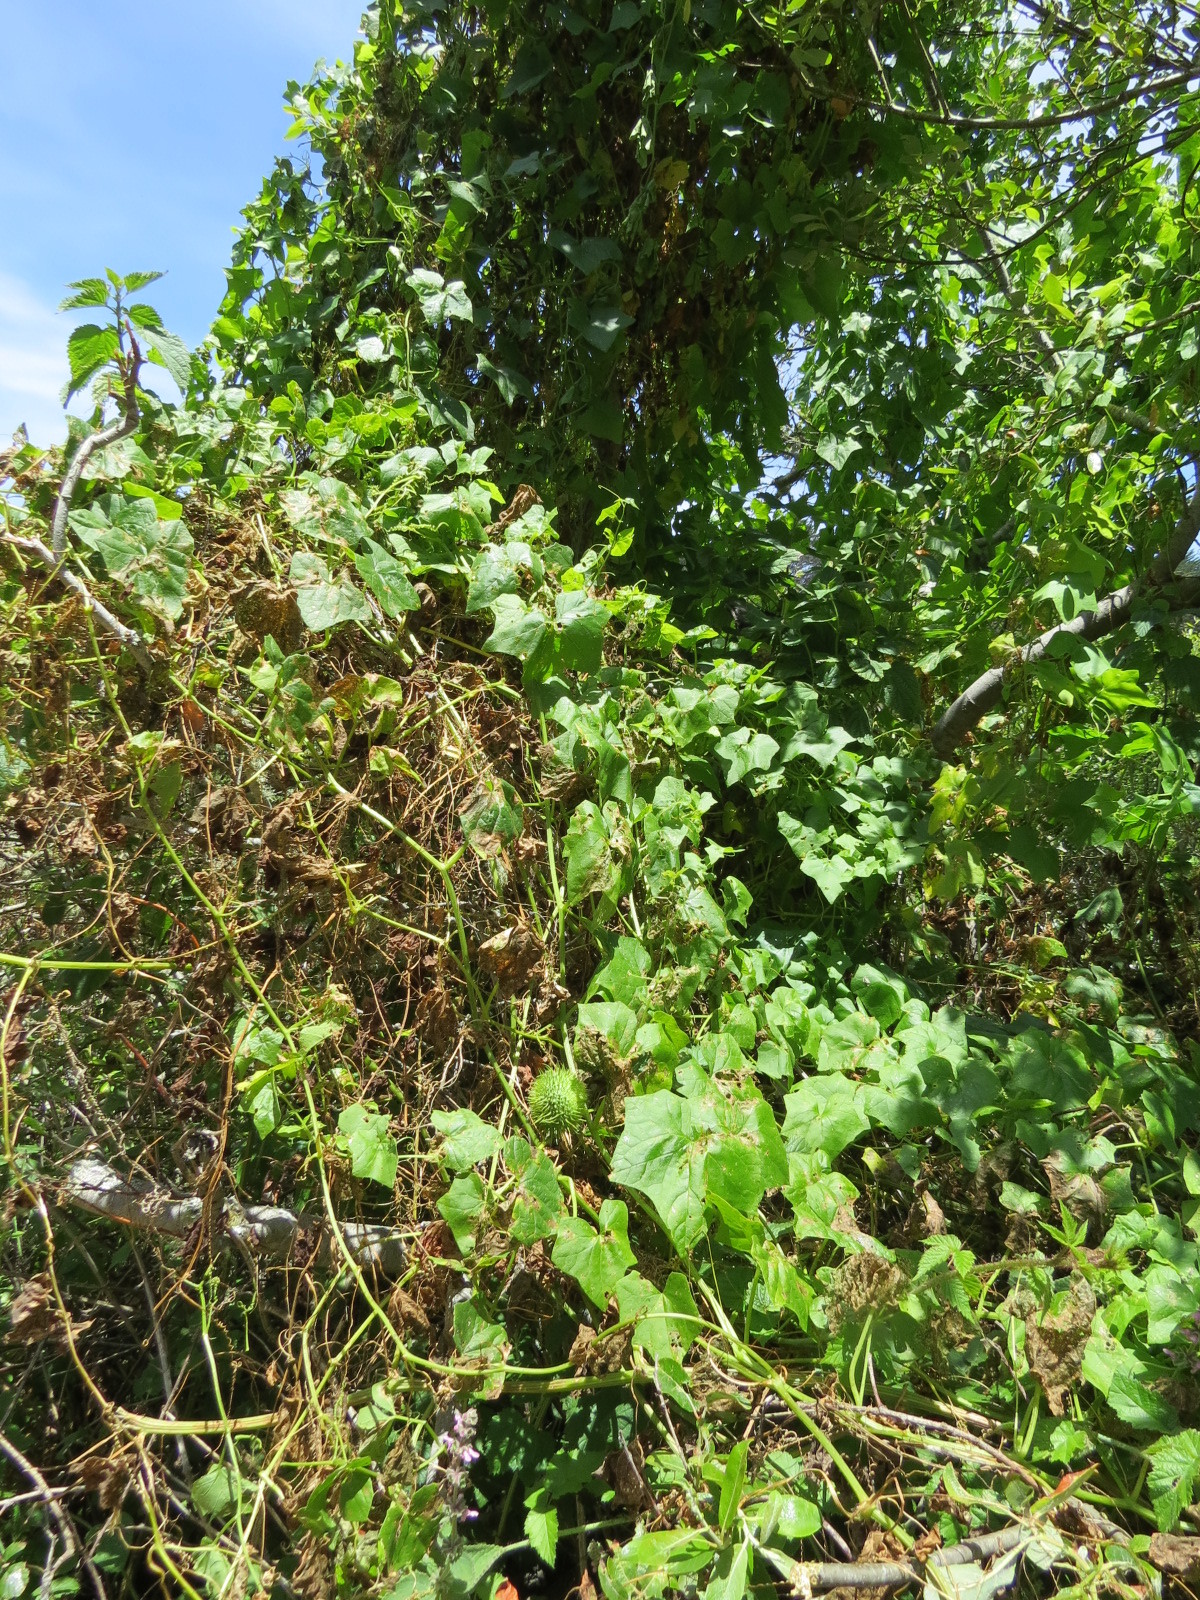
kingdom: Plantae
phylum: Tracheophyta
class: Magnoliopsida
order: Cucurbitales
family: Cucurbitaceae
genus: Marah
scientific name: Marah fabacea
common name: California manroot
